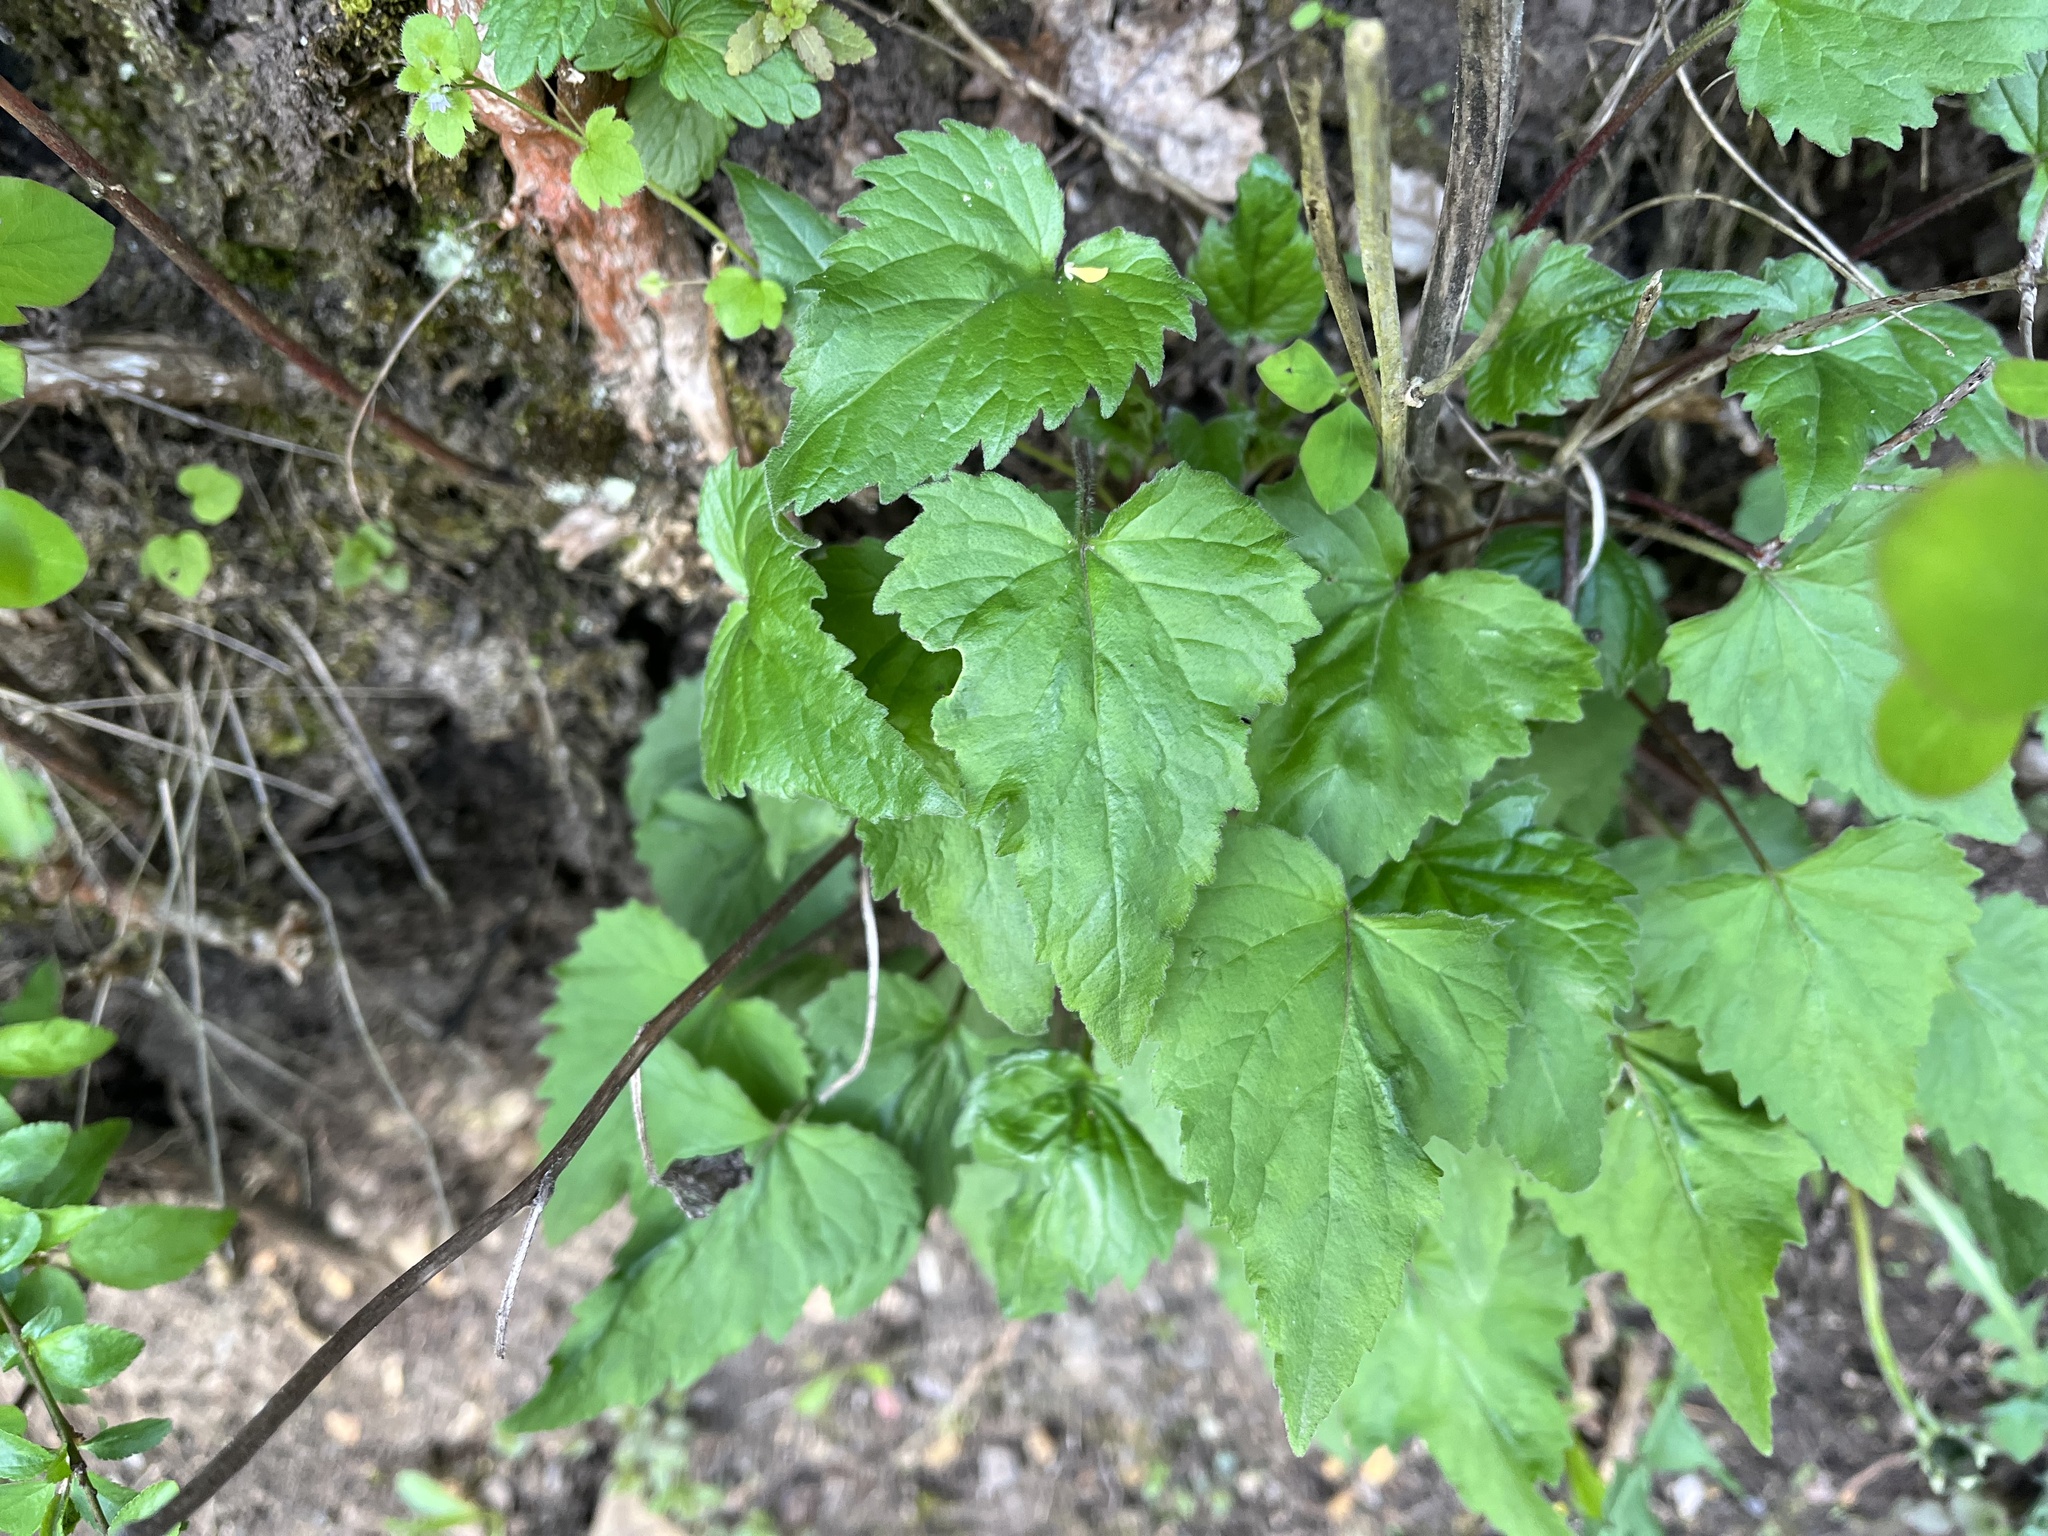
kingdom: Plantae
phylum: Tracheophyta
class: Magnoliopsida
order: Asterales
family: Campanulaceae
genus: Campanula
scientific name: Campanula trachelium
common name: Nettle-leaved bellflower
